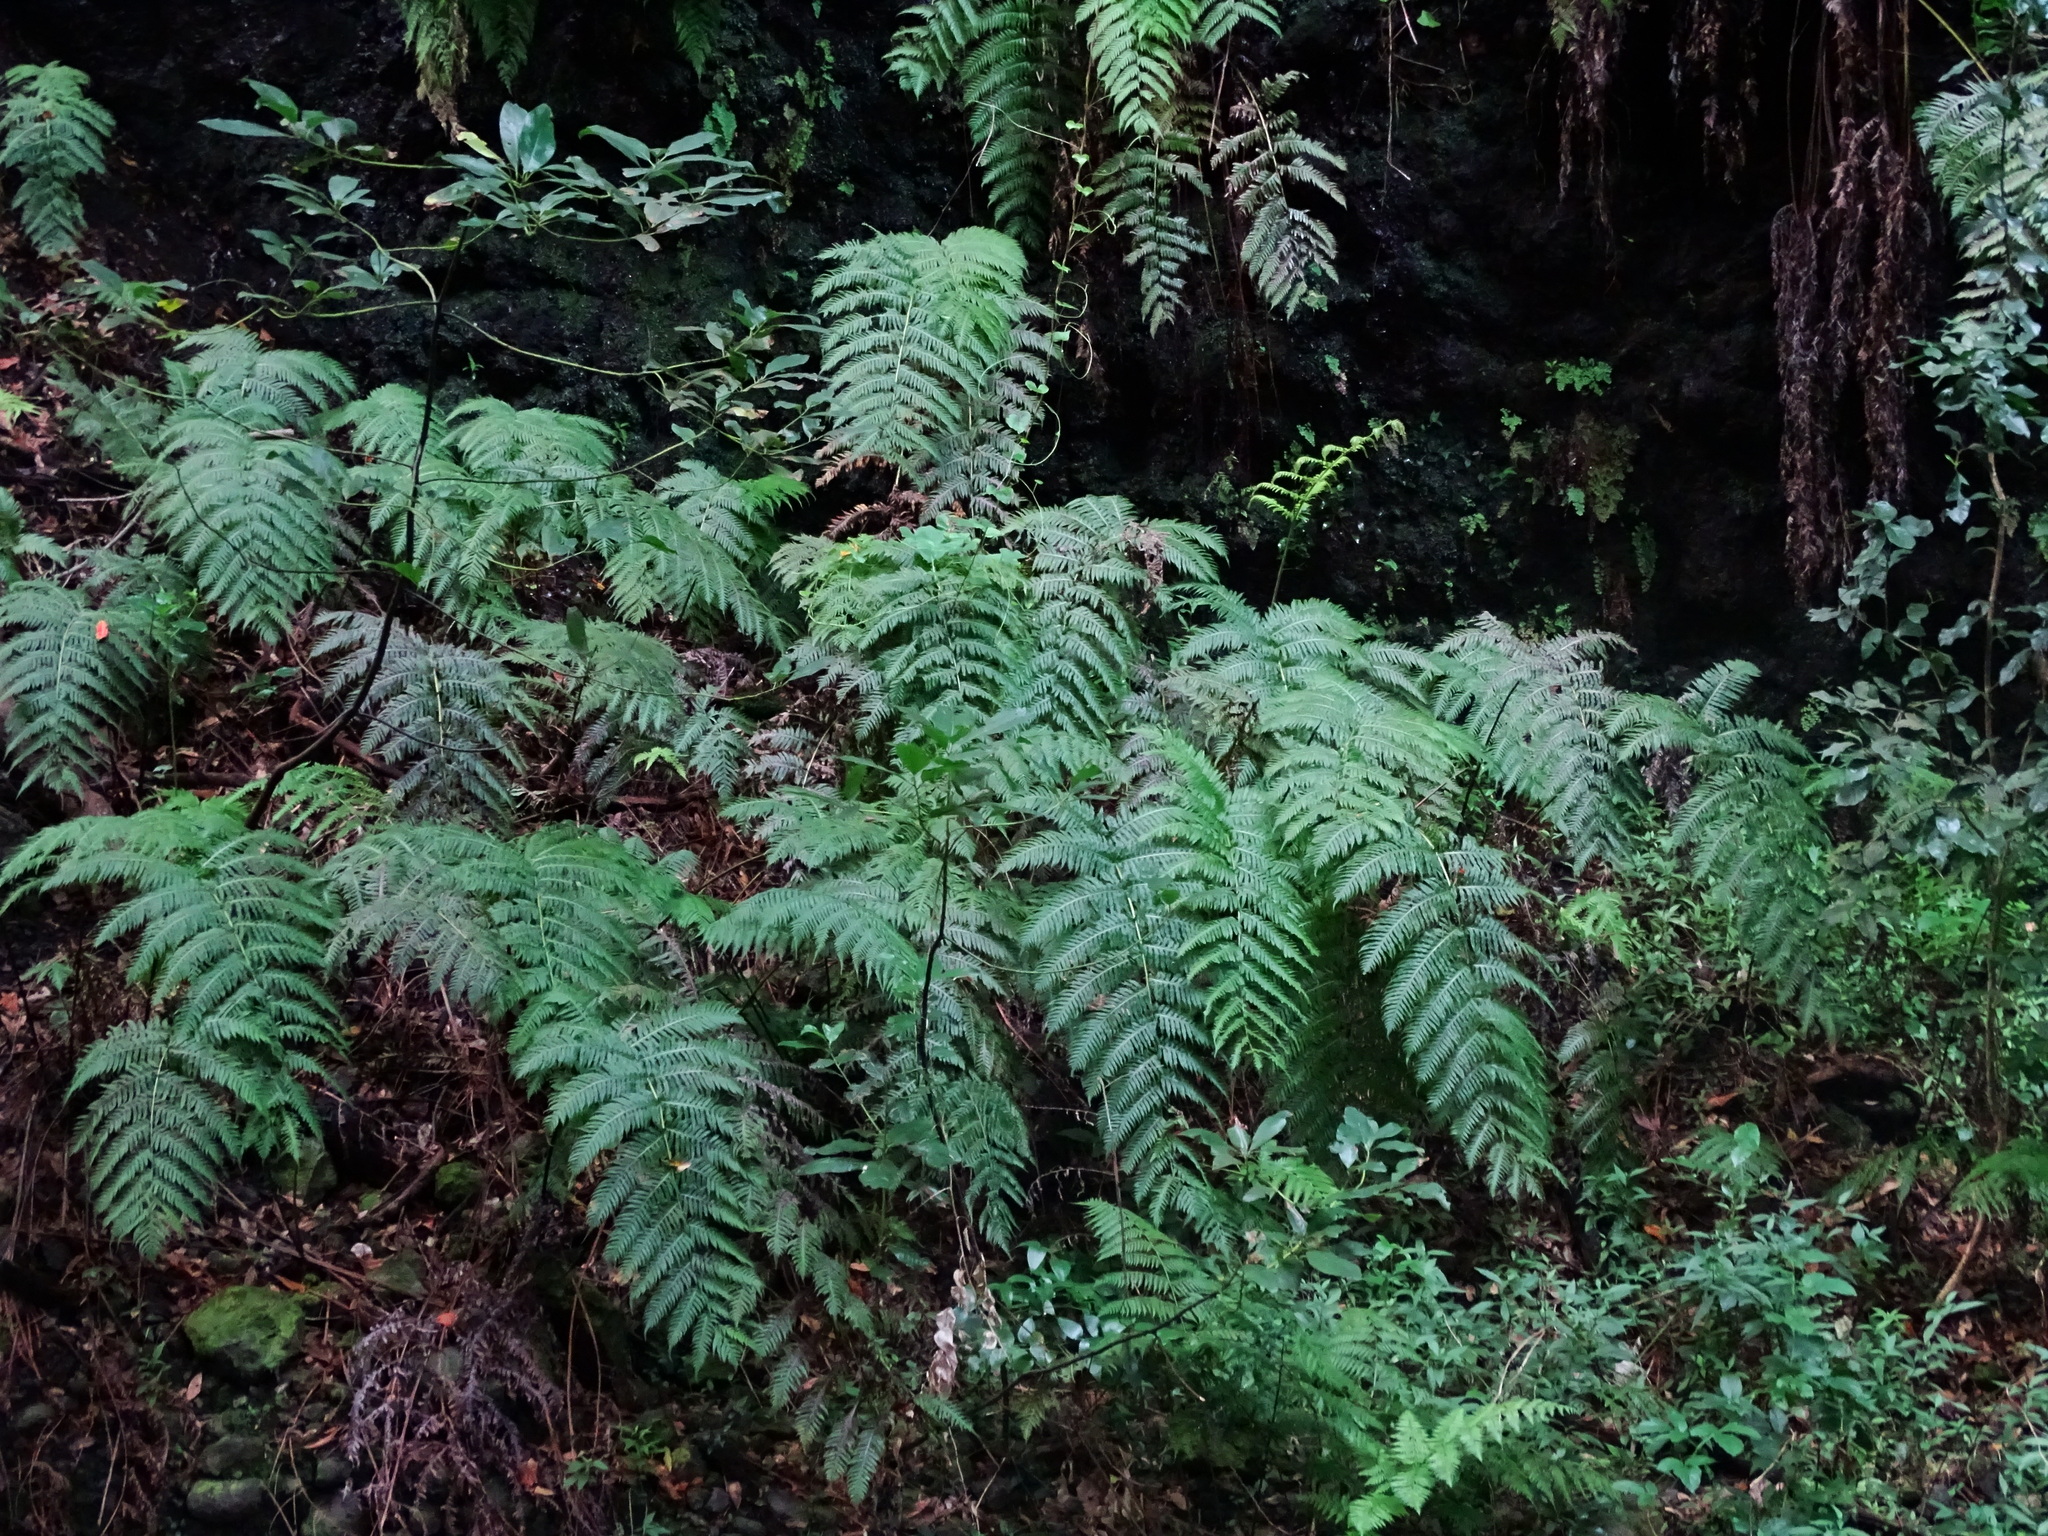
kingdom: Plantae
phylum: Tracheophyta
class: Polypodiopsida
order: Polypodiales
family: Blechnaceae
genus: Woodwardia
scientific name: Woodwardia radicans
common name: Rooting chainfern
